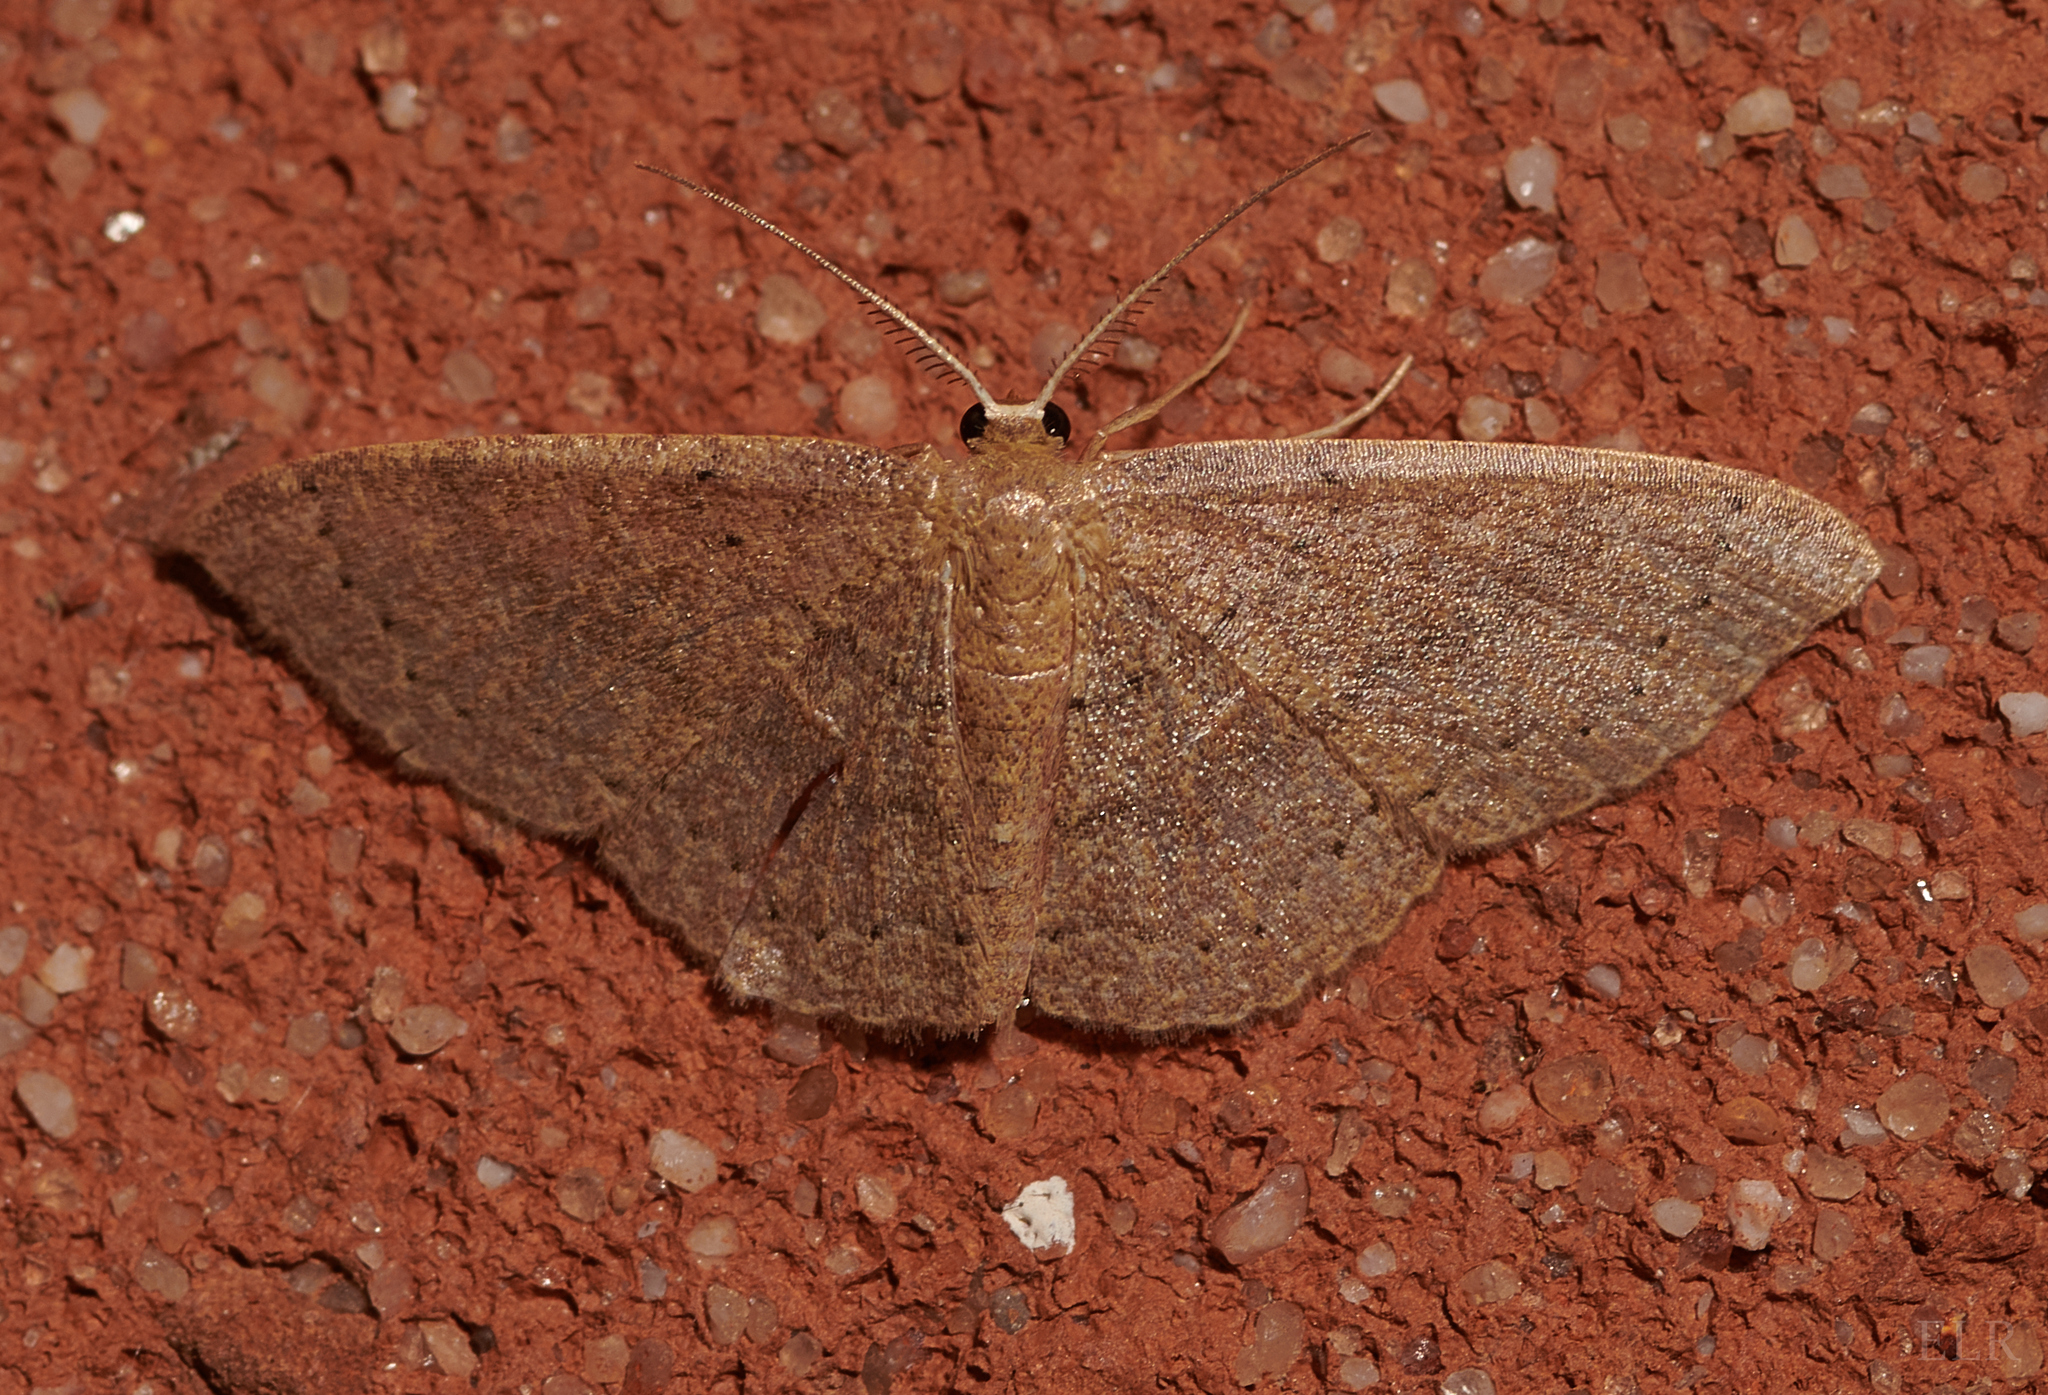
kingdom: Animalia
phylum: Arthropoda
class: Insecta
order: Lepidoptera
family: Geometridae
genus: Pleuroprucha
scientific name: Pleuroprucha insulsaria
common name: Common tan wave
